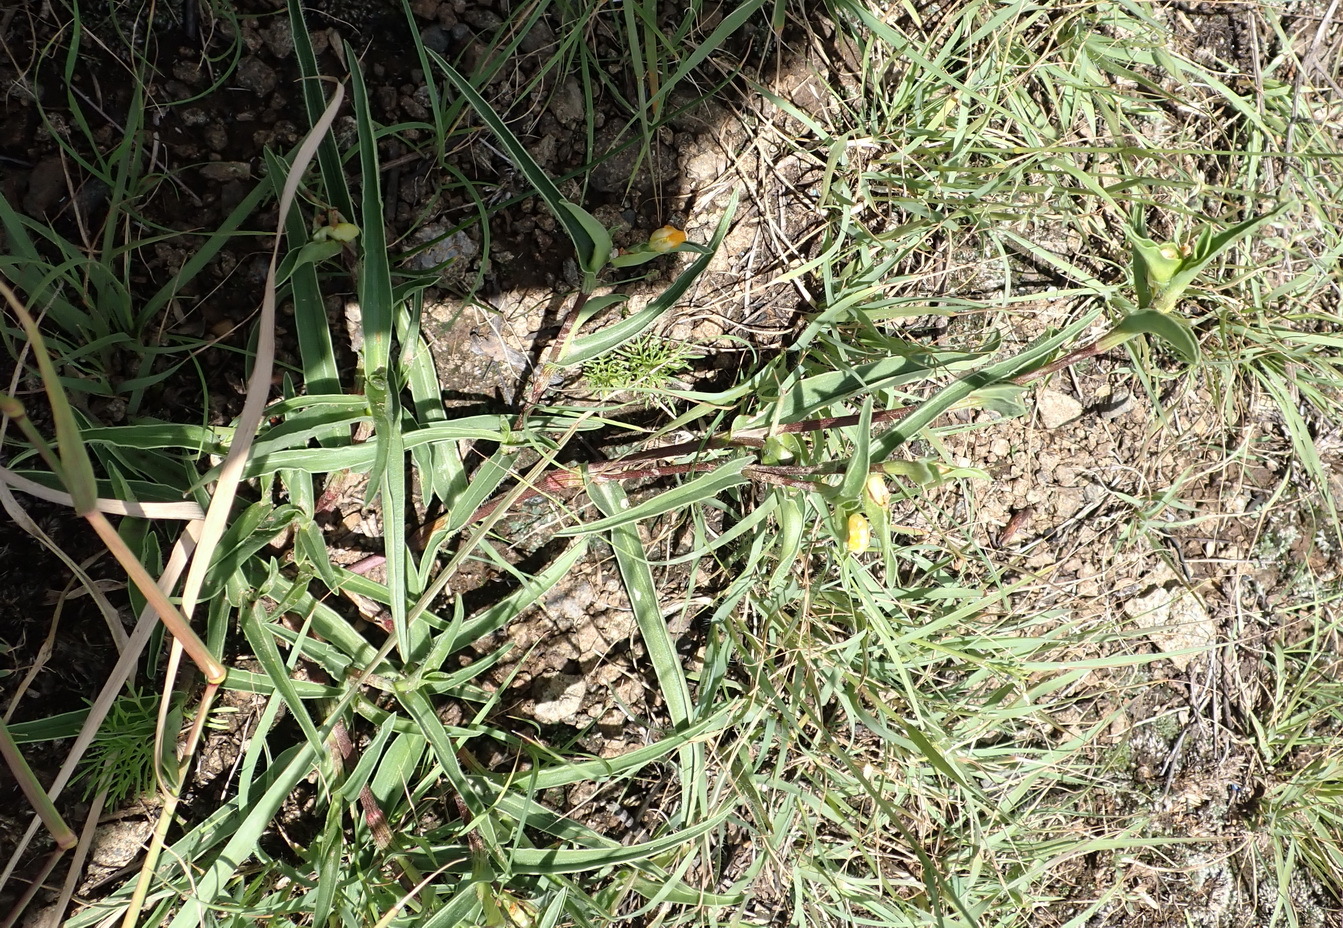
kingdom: Plantae
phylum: Tracheophyta
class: Liliopsida
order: Commelinales
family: Commelinaceae
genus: Commelina
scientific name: Commelina africana
